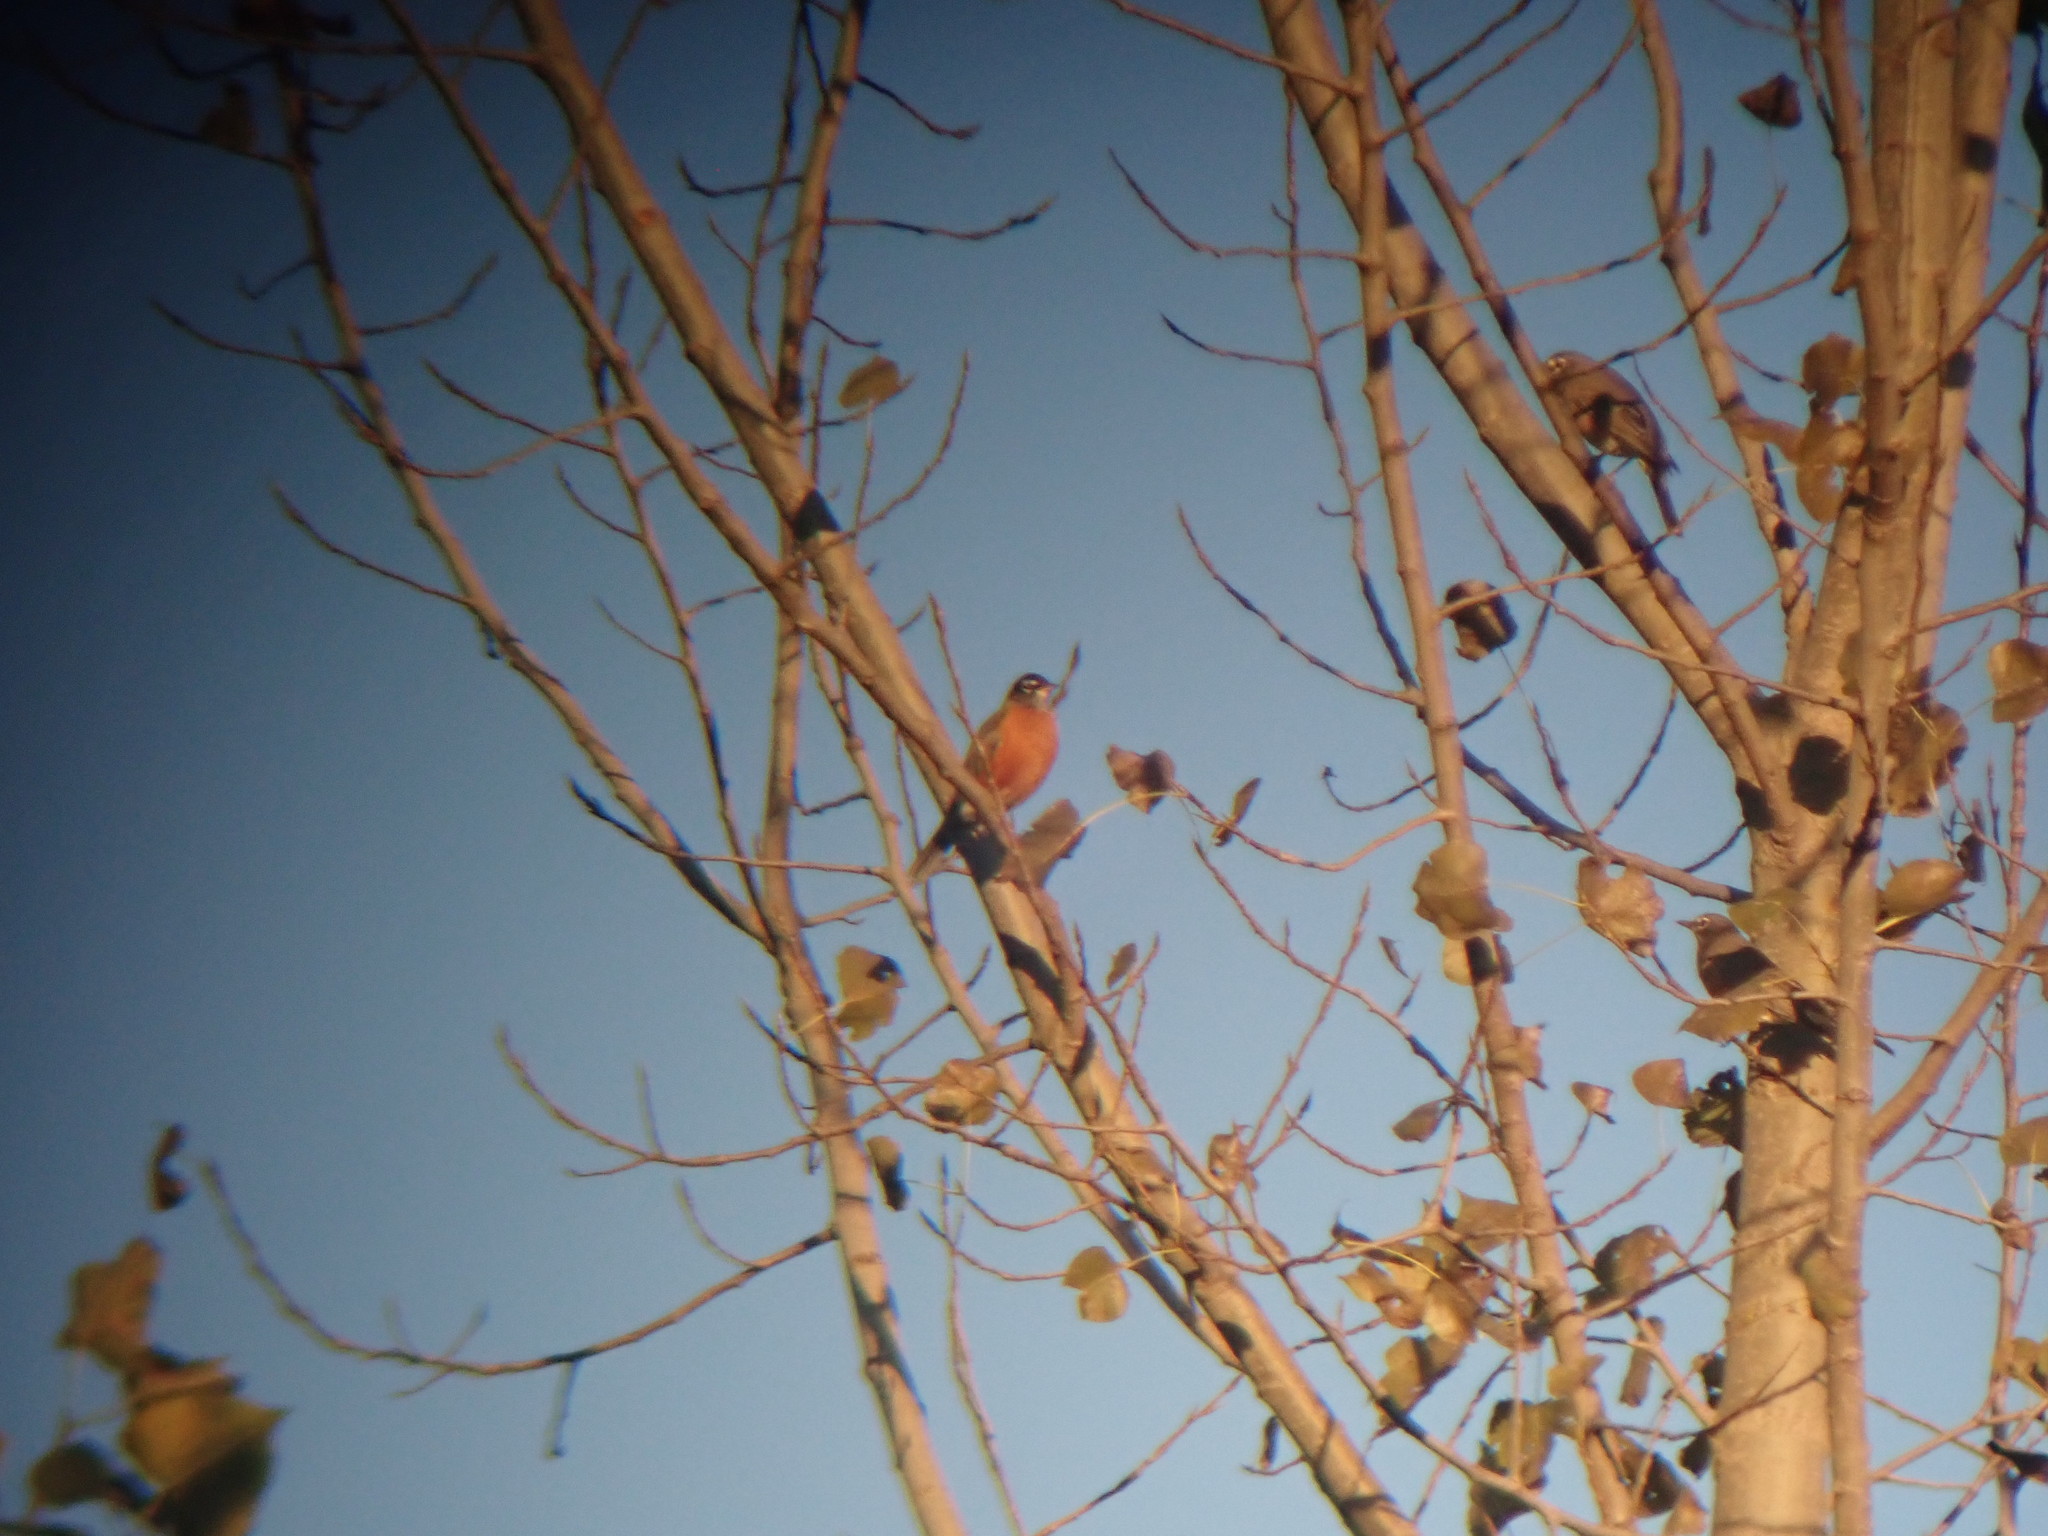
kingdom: Animalia
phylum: Chordata
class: Aves
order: Passeriformes
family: Turdidae
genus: Turdus
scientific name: Turdus migratorius
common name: American robin
